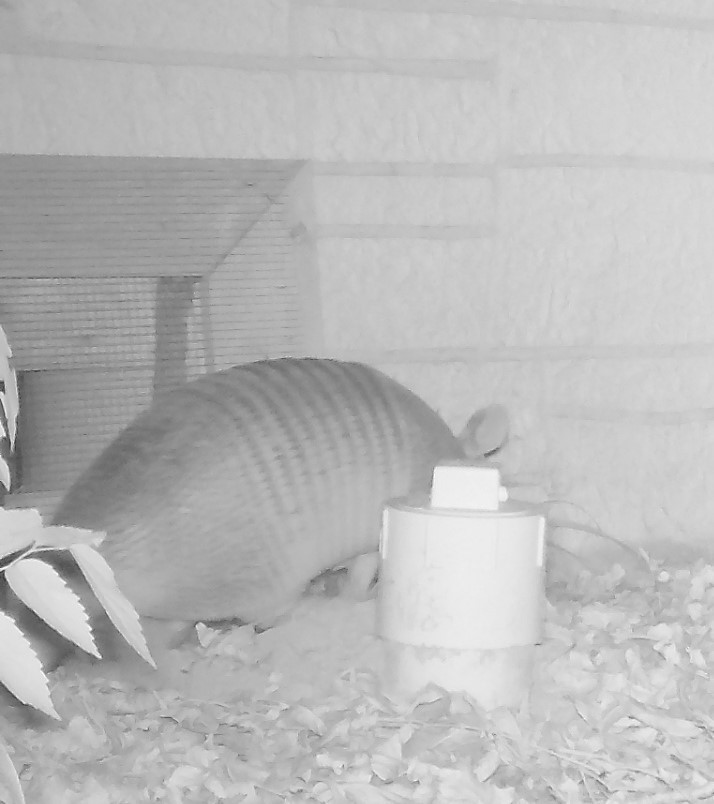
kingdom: Animalia
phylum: Chordata
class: Mammalia
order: Cingulata
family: Dasypodidae
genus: Dasypus
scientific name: Dasypus novemcinctus
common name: Nine-banded armadillo
